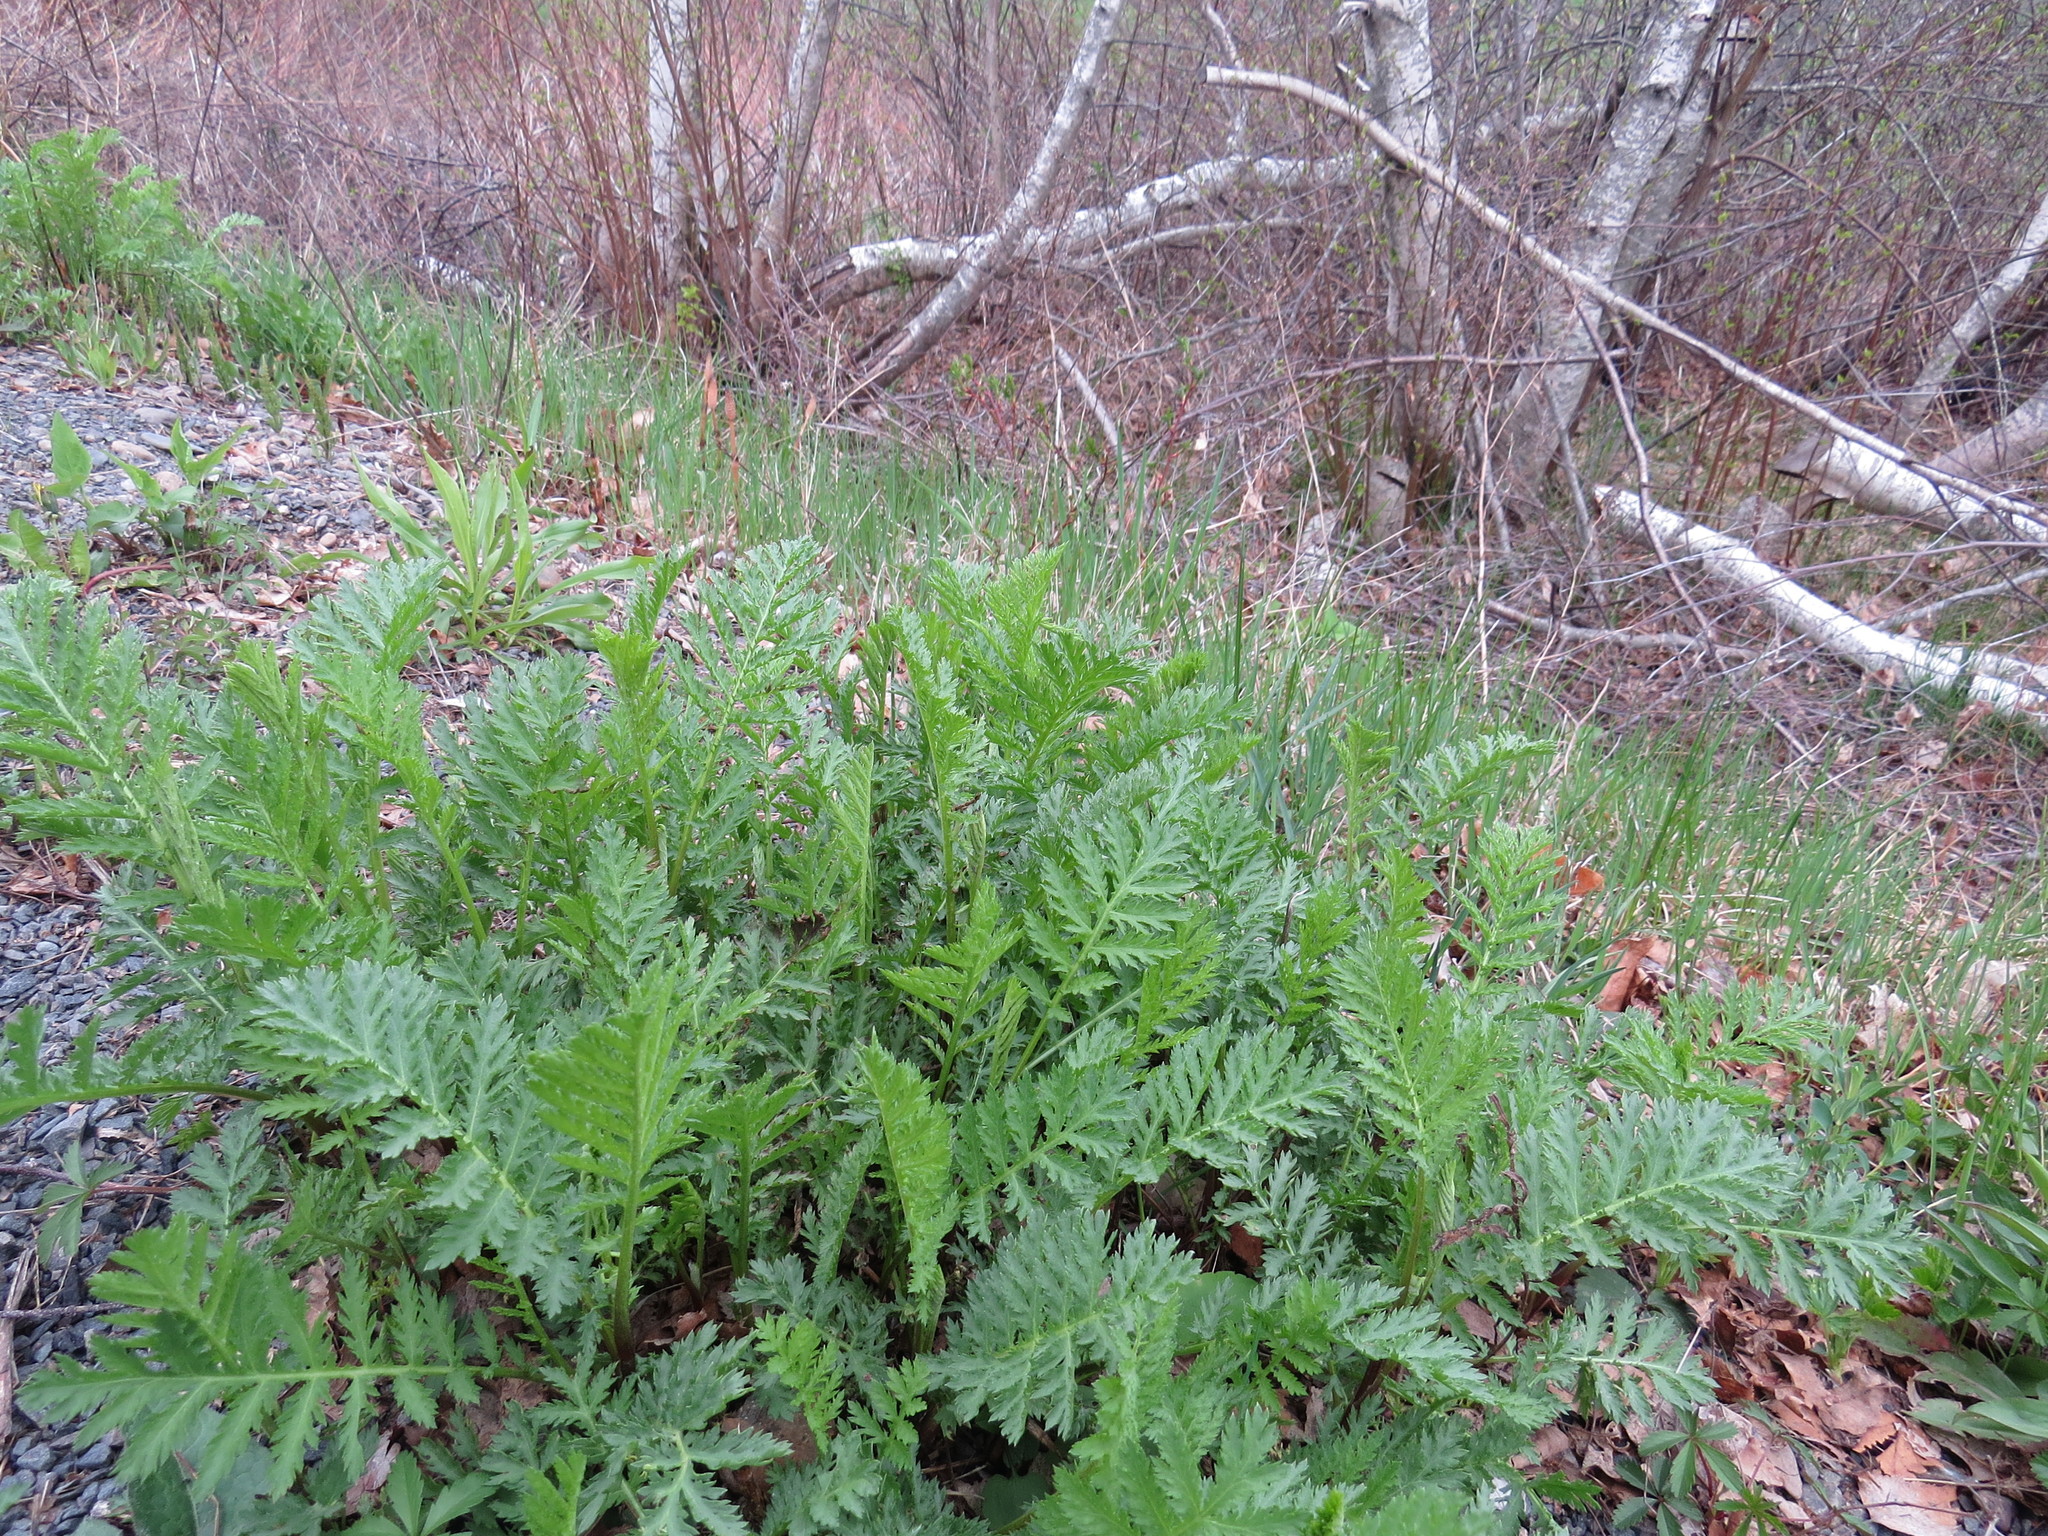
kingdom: Plantae
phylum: Tracheophyta
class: Magnoliopsida
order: Asterales
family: Asteraceae
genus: Tanacetum
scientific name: Tanacetum vulgare
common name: Common tansy
